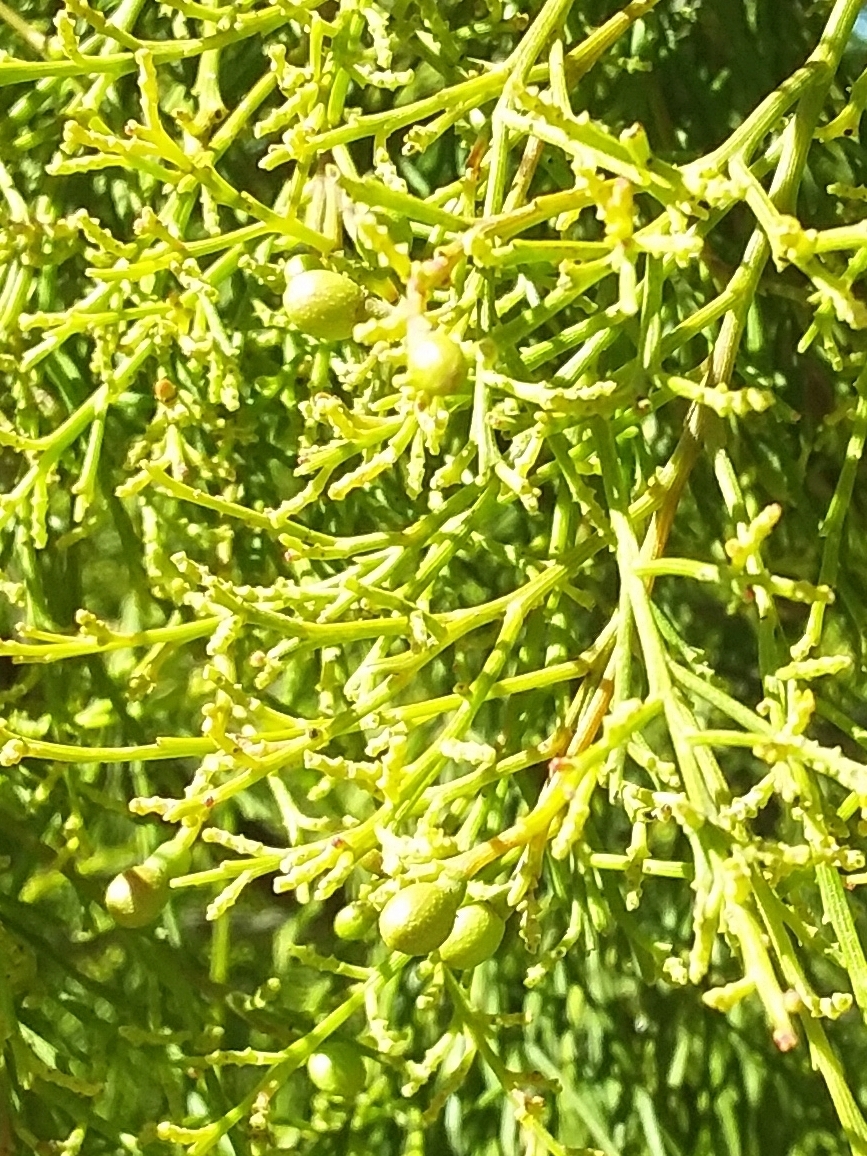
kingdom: Plantae
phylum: Tracheophyta
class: Magnoliopsida
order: Santalales
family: Santalaceae
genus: Exocarpos
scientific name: Exocarpos cupressiformis
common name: Cherry ballart
